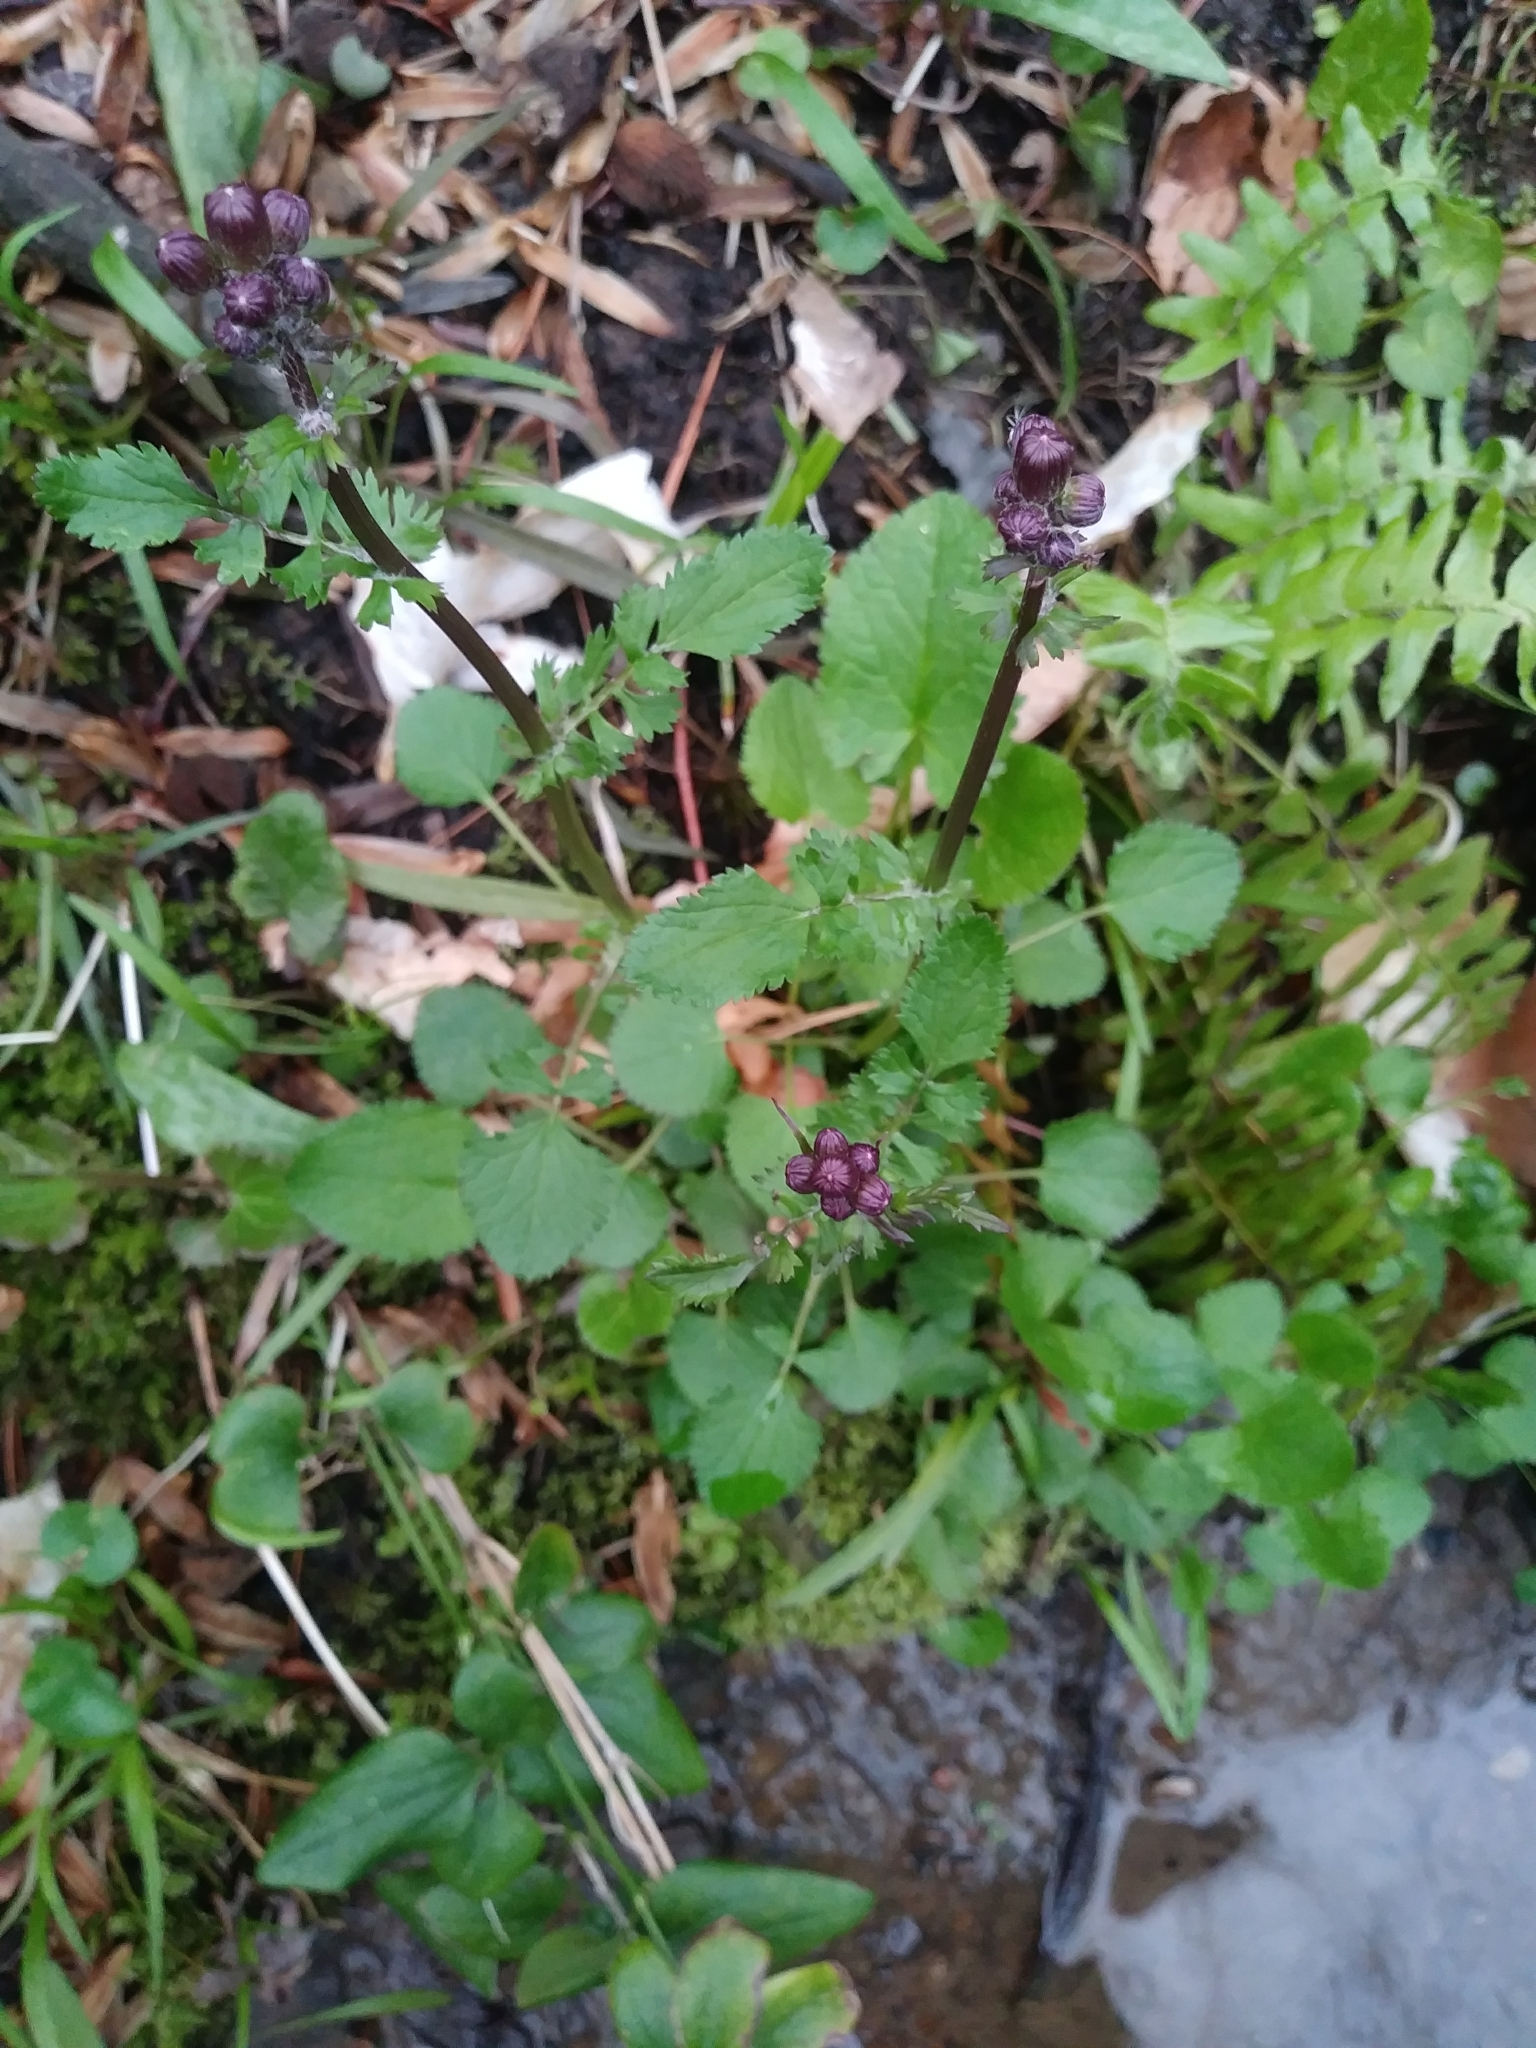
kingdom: Plantae
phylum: Tracheophyta
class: Magnoliopsida
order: Asterales
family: Asteraceae
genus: Packera
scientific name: Packera aurea
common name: Golden groundsel
